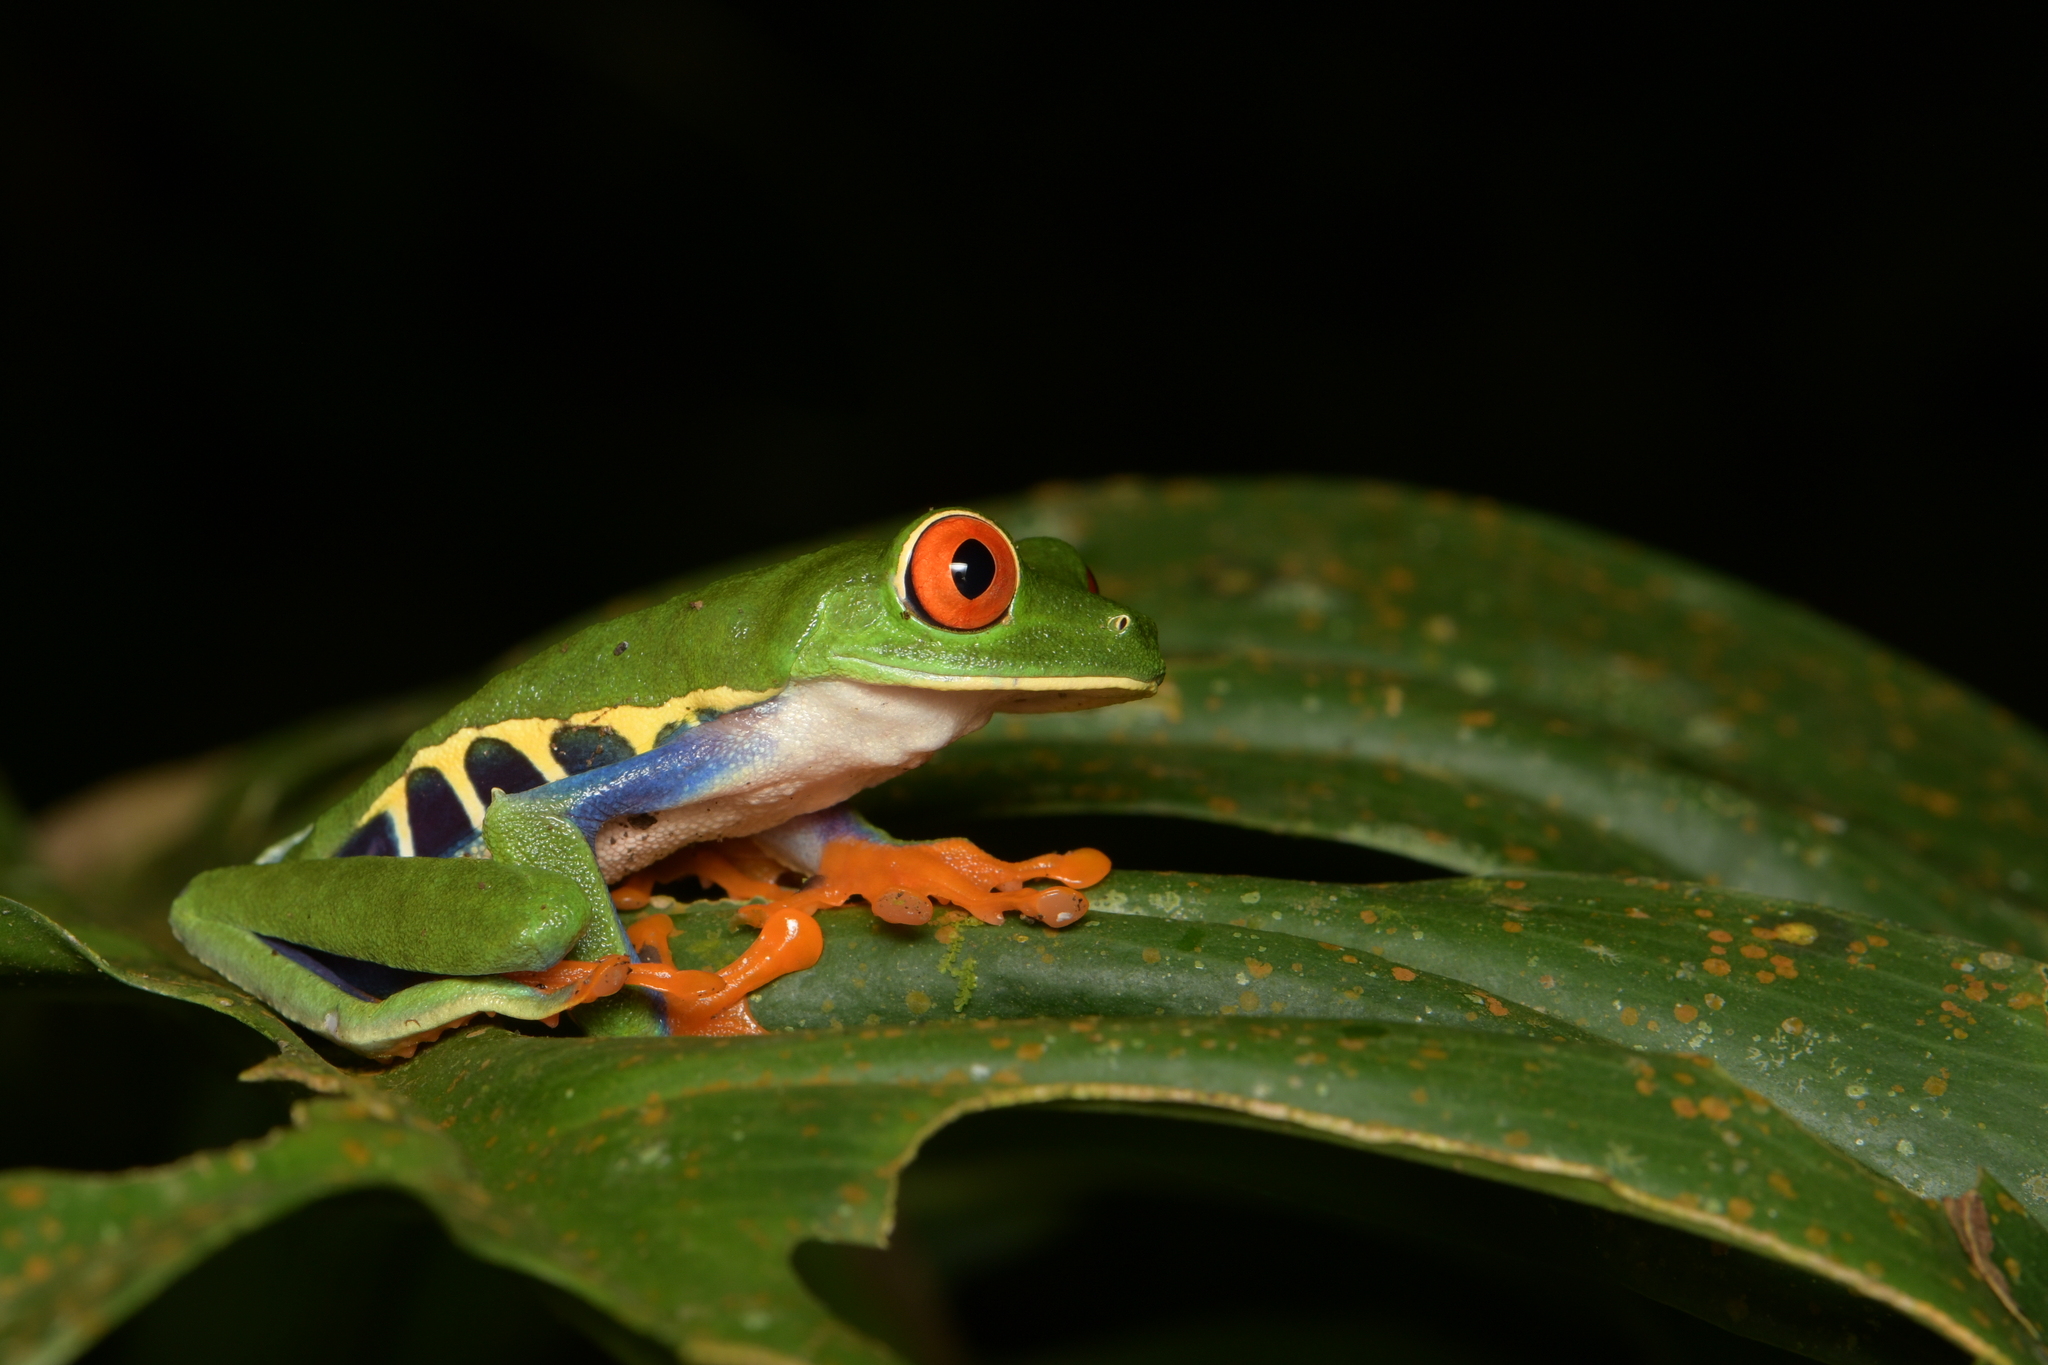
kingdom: Animalia
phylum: Chordata
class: Amphibia
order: Anura
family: Phyllomedusidae
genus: Agalychnis
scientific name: Agalychnis callidryas
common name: Red-eyed treefrog
